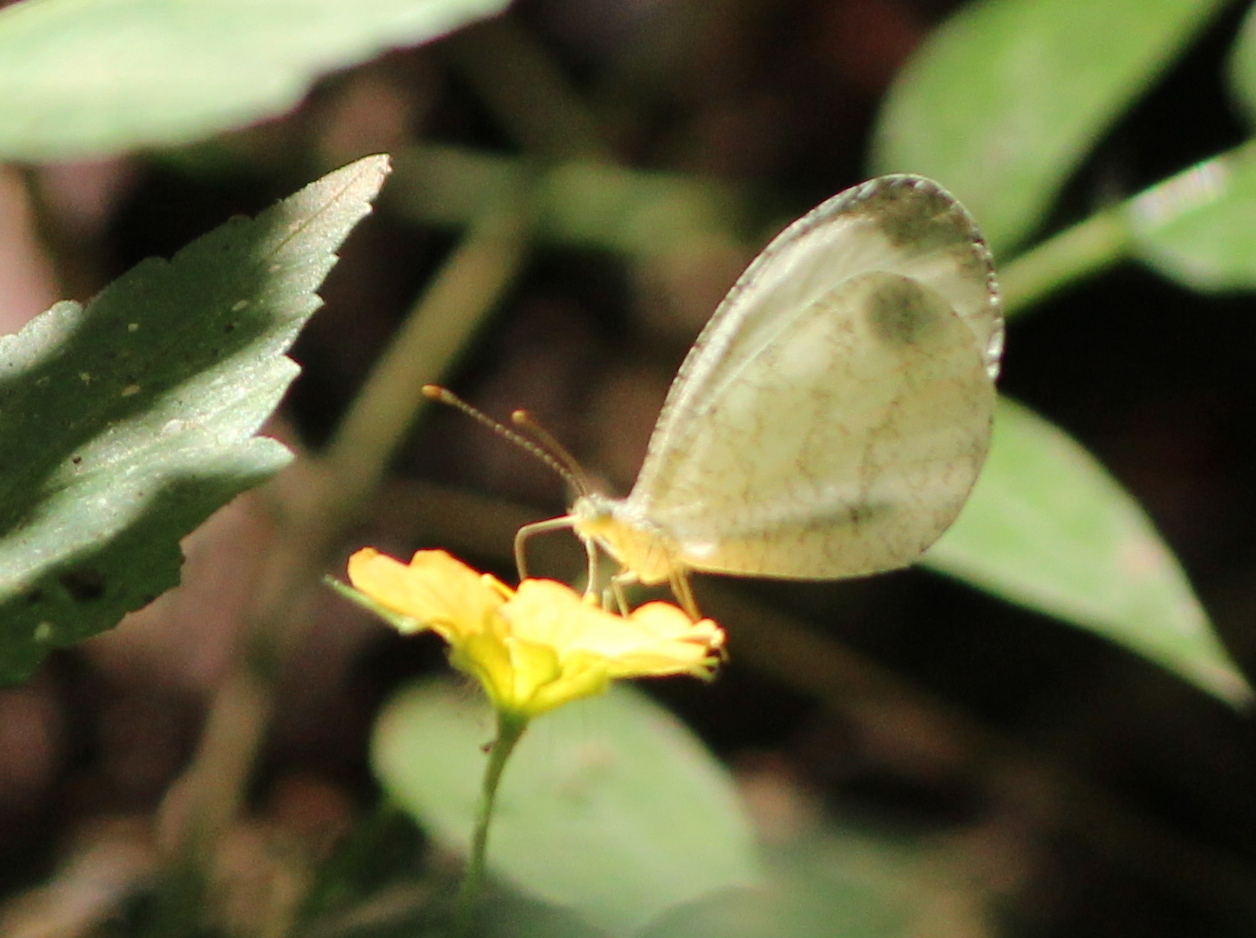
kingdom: Animalia
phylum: Arthropoda
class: Insecta
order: Lepidoptera
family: Pieridae
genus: Leptosia
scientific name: Leptosia nina
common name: Psyche
